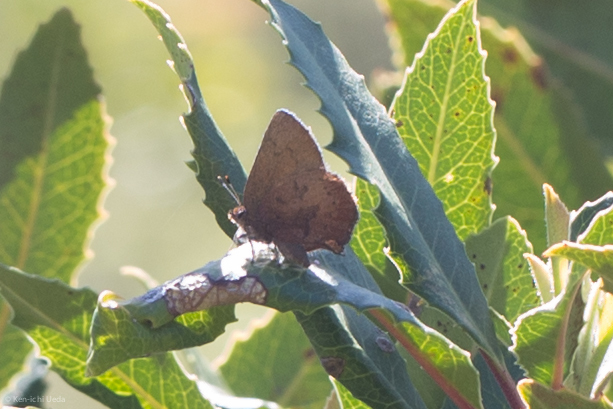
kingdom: Animalia
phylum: Arthropoda
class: Insecta
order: Lepidoptera
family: Lycaenidae
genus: Incisalia
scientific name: Incisalia irioides
